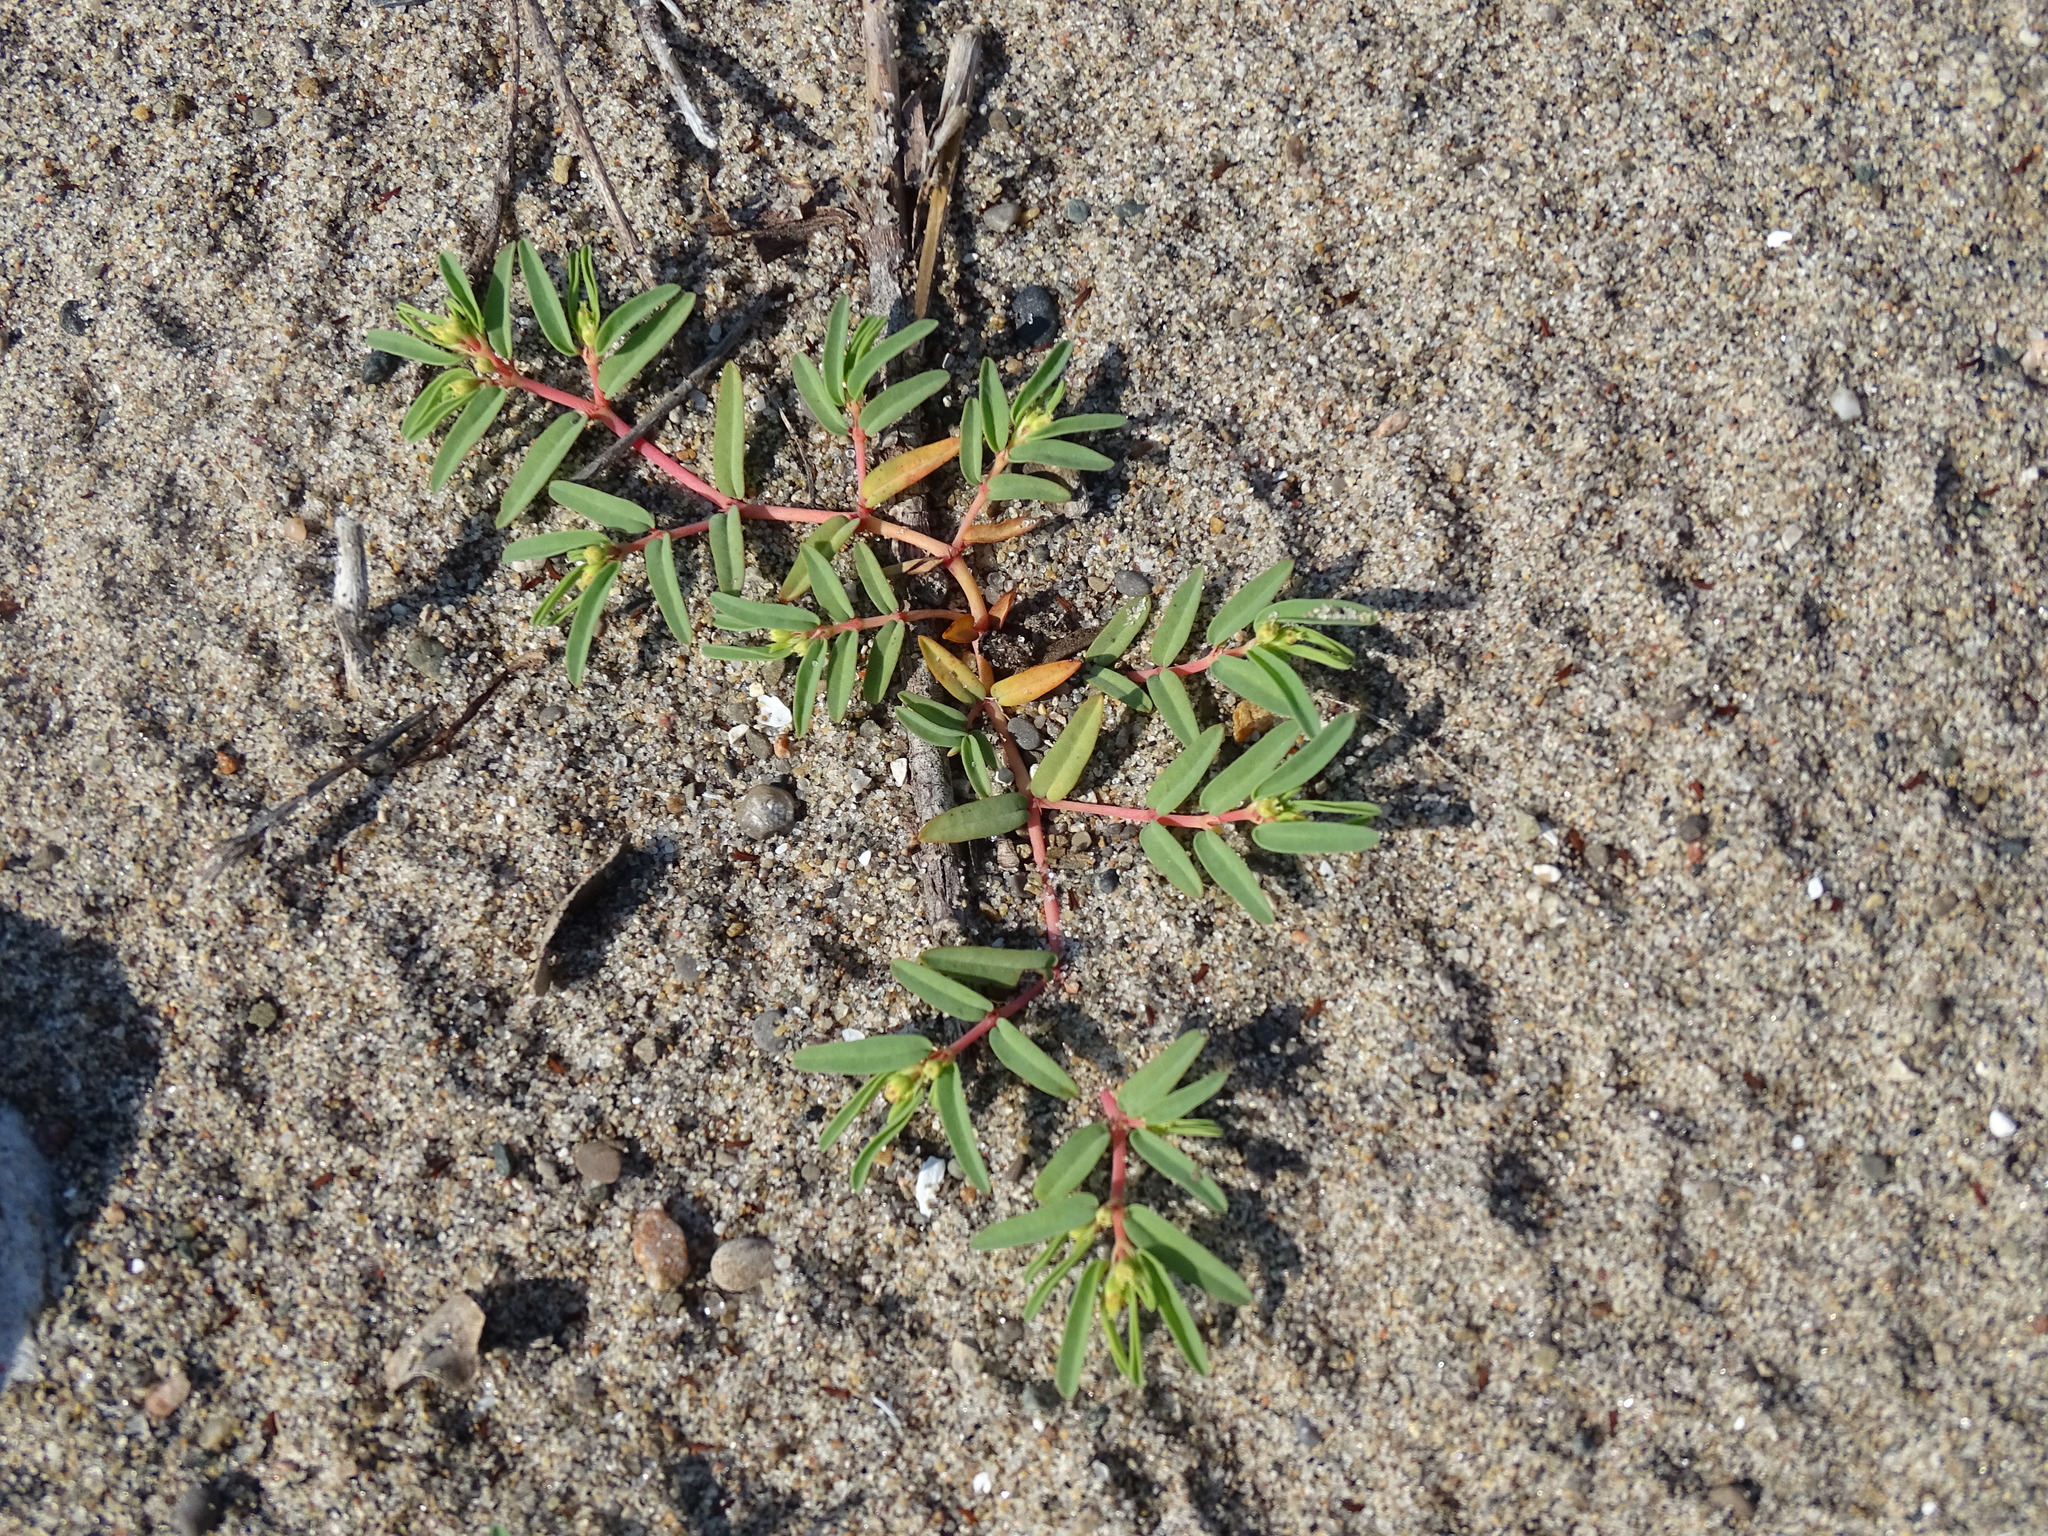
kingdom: Plantae
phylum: Tracheophyta
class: Magnoliopsida
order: Malpighiales
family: Euphorbiaceae
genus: Euphorbia
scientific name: Euphorbia polygonifolia
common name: Knotweed spurge
